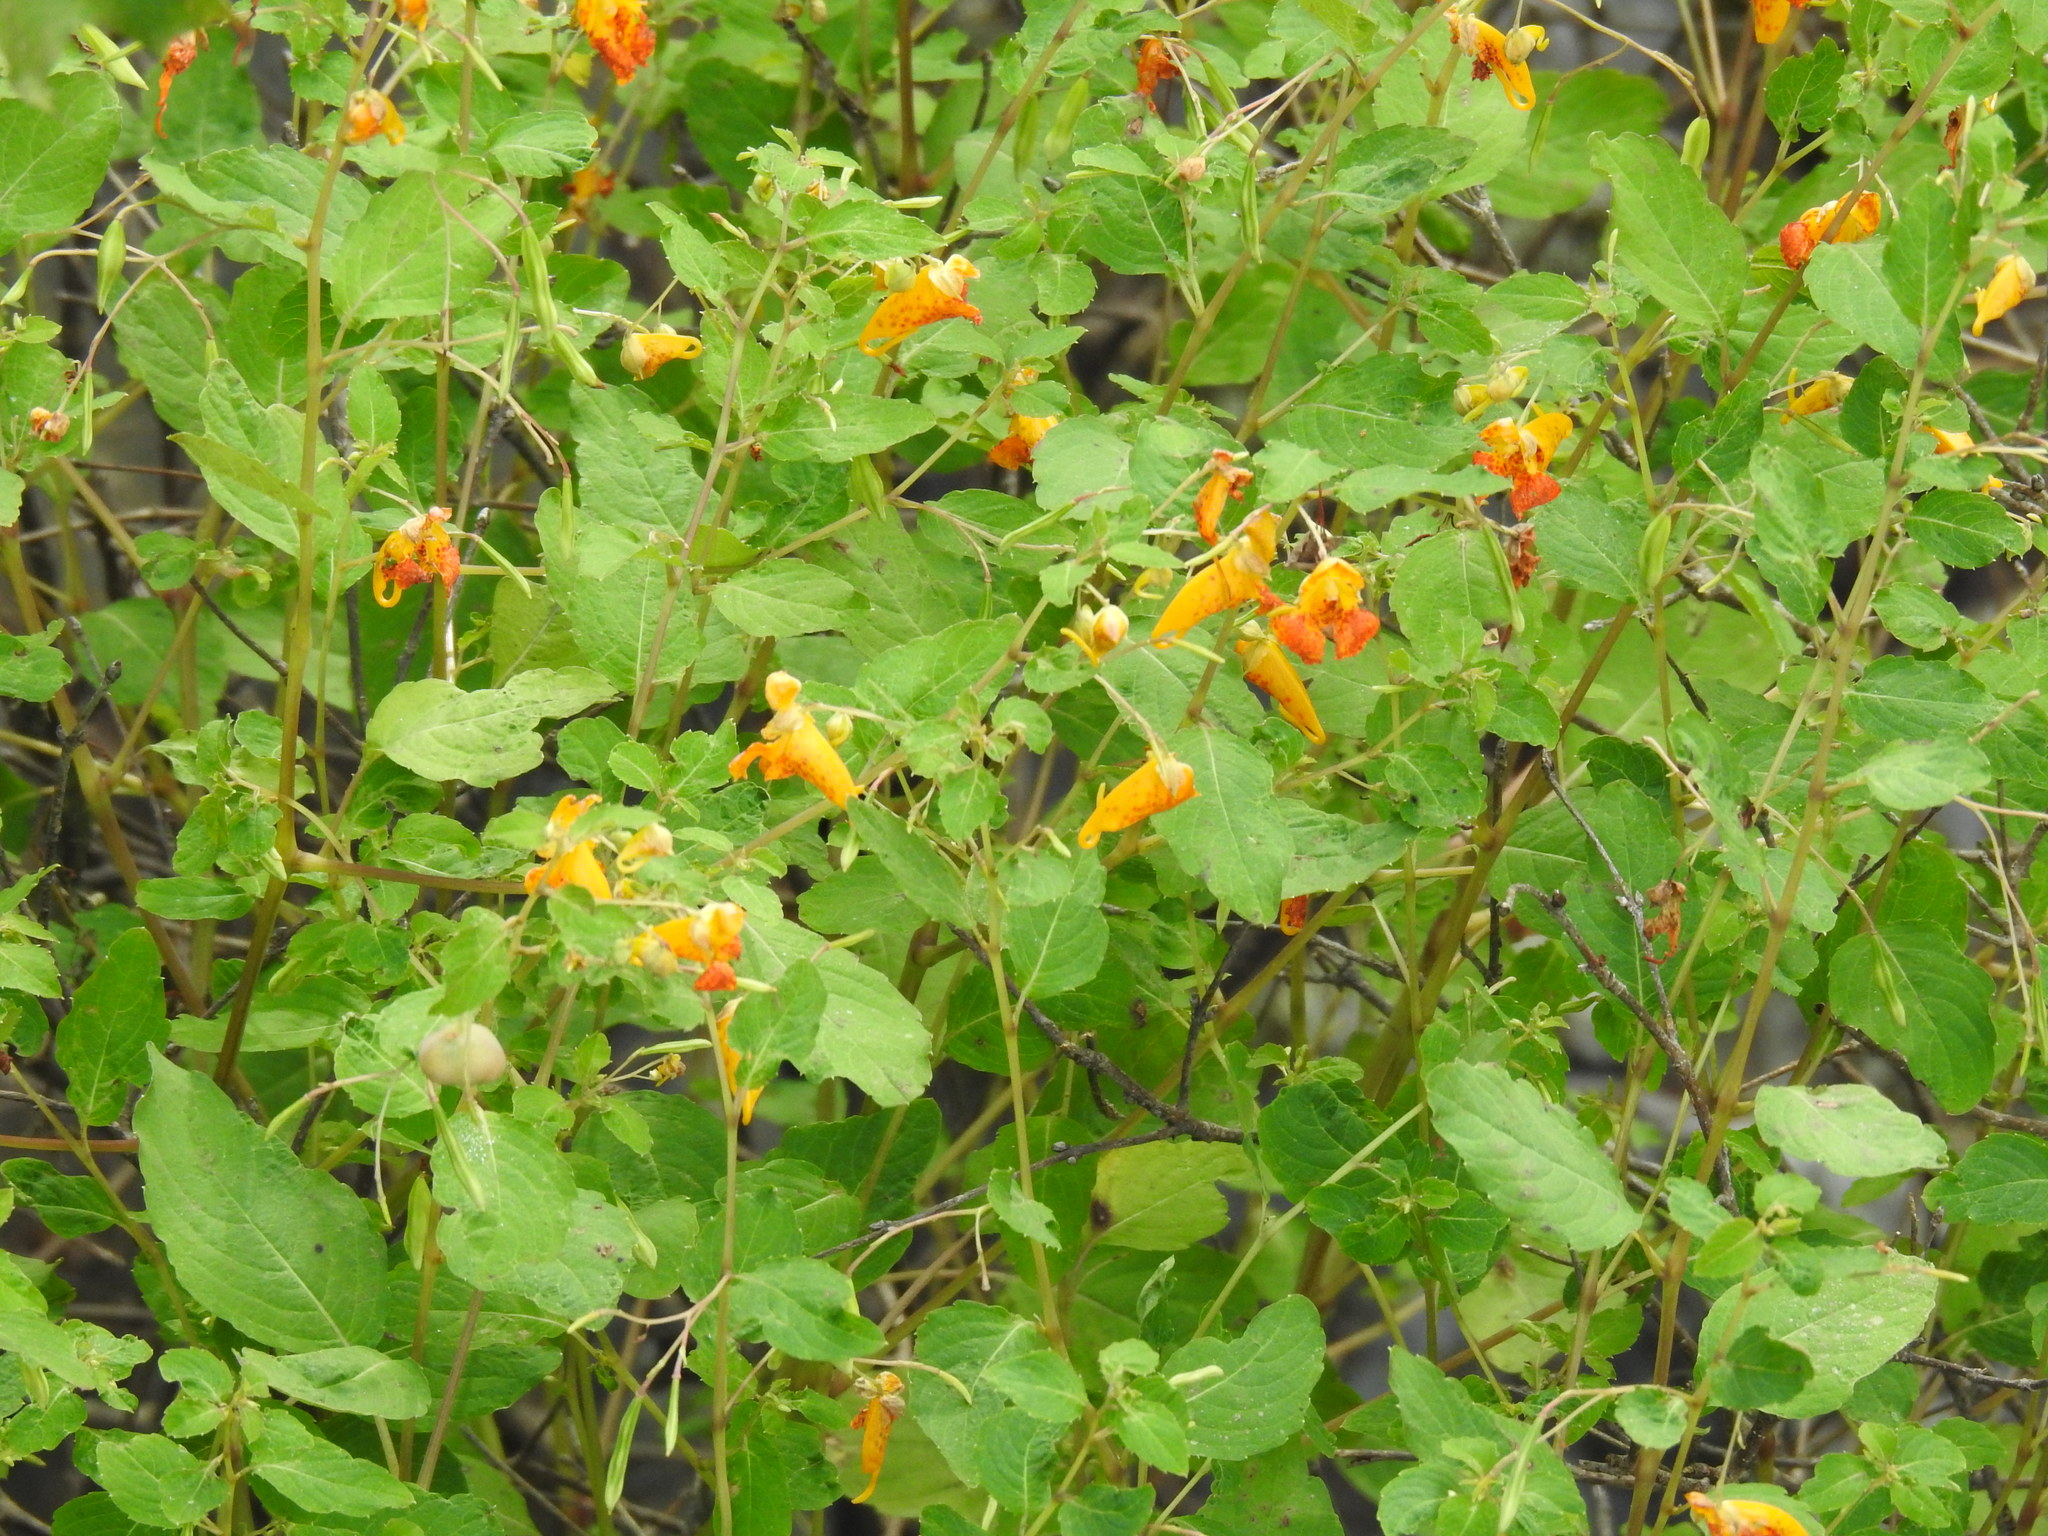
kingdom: Plantae
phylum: Tracheophyta
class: Magnoliopsida
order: Ericales
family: Balsaminaceae
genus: Impatiens
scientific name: Impatiens capensis
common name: Orange balsam
